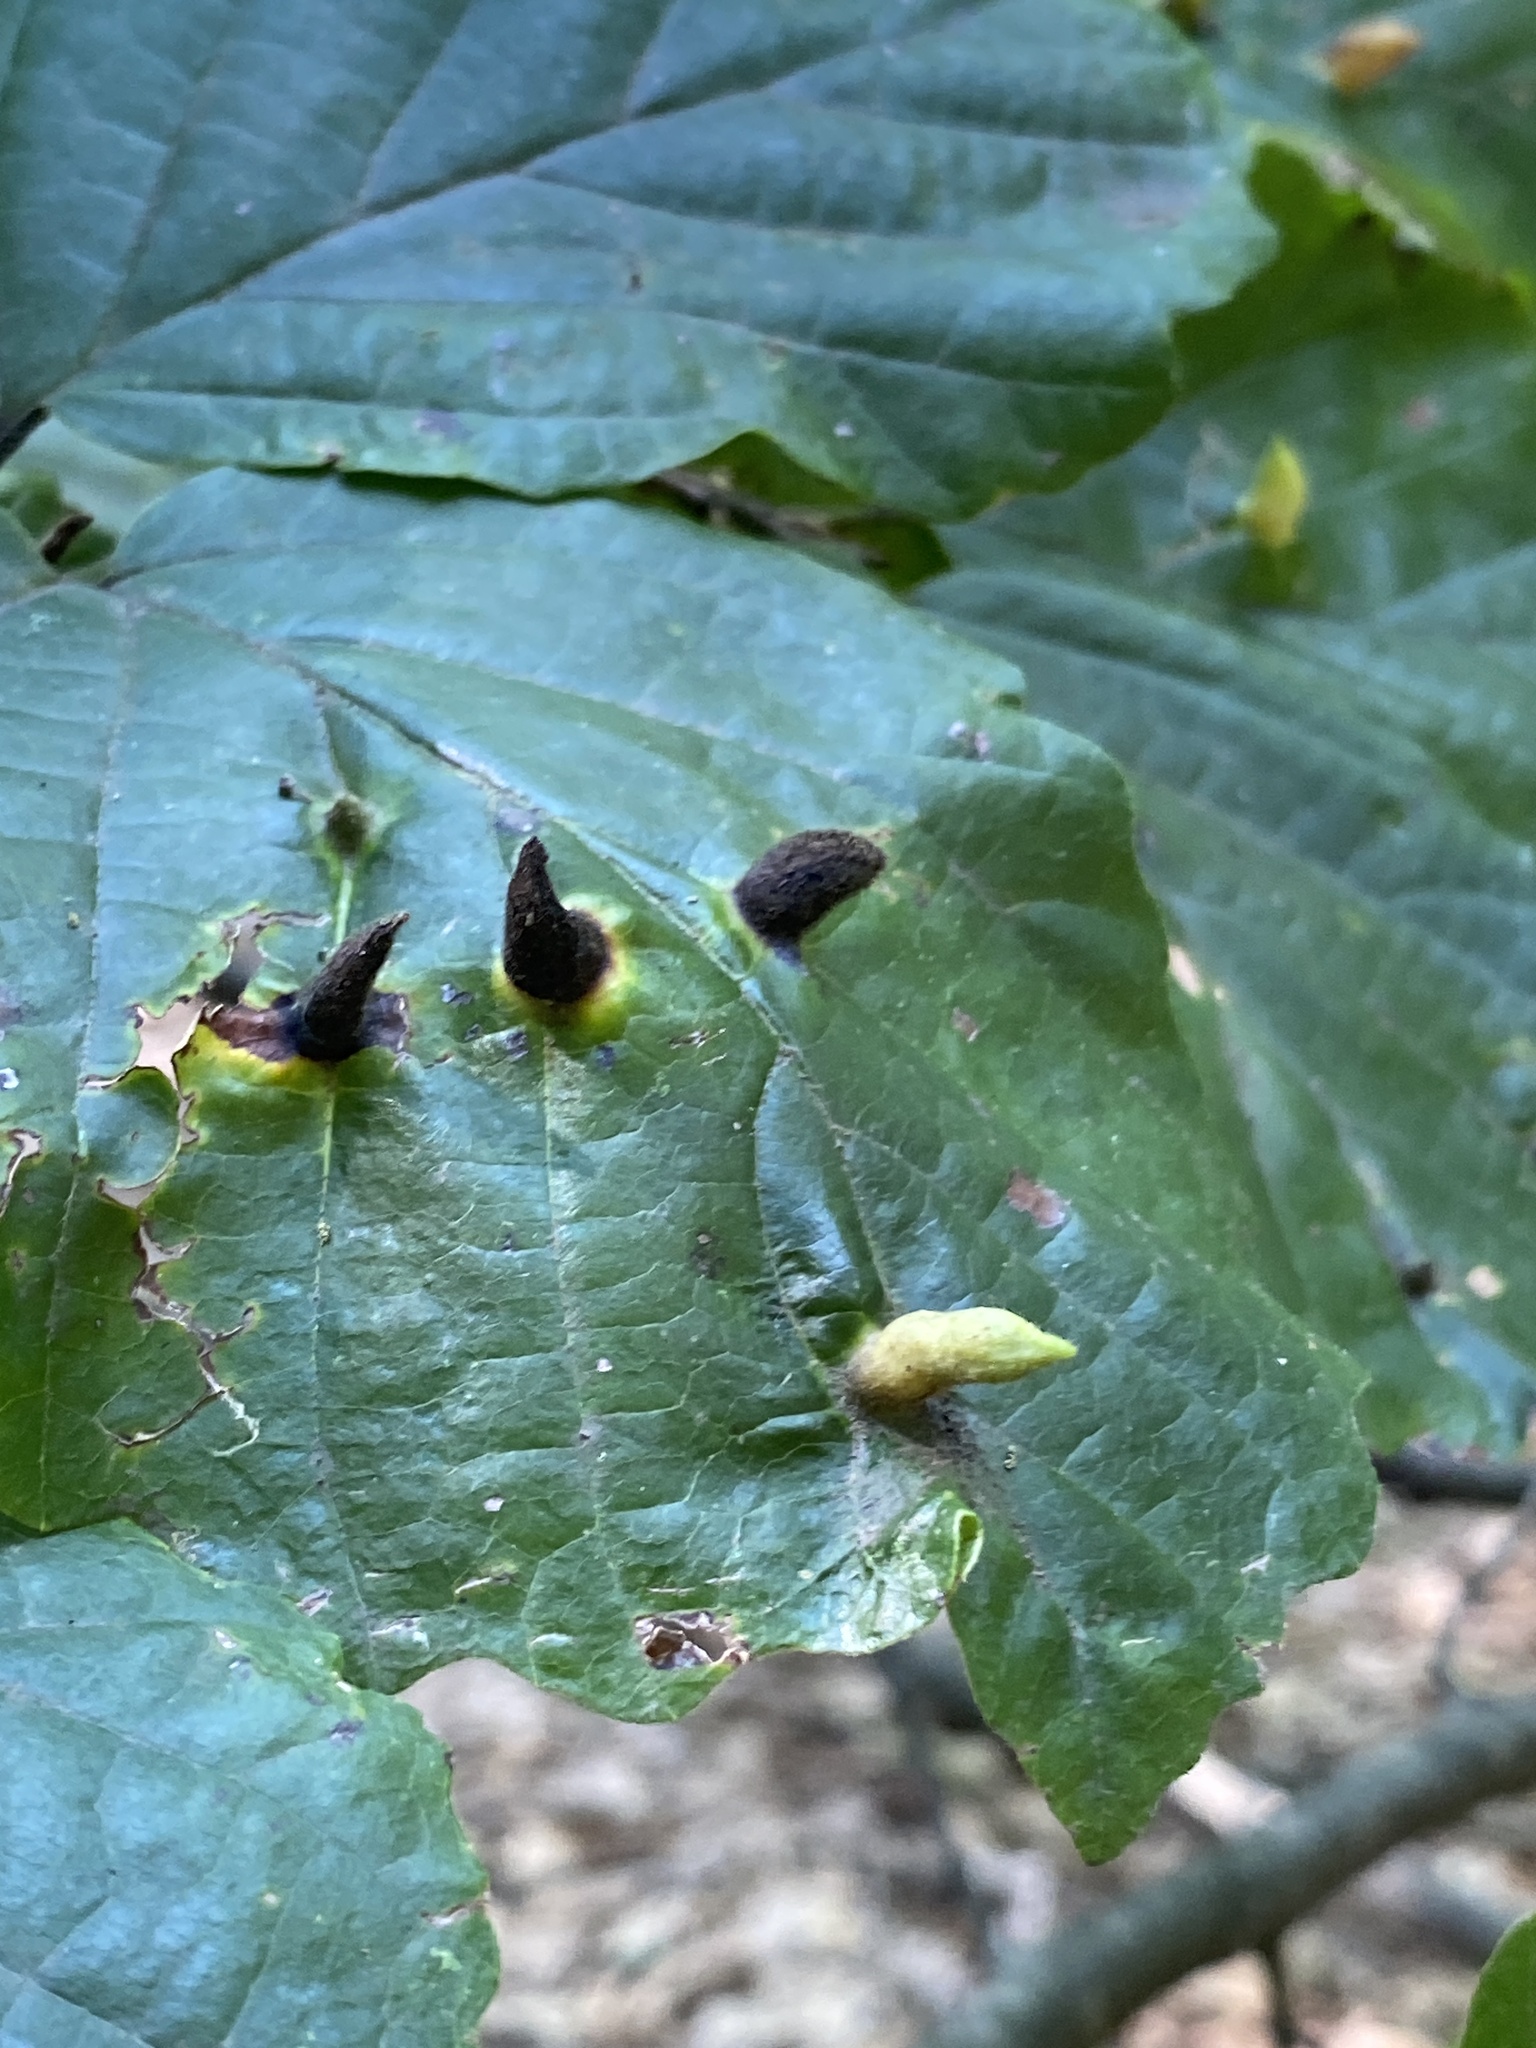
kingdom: Animalia
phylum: Arthropoda
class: Insecta
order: Hemiptera
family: Aphididae
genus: Hormaphis
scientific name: Hormaphis hamamelidis
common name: Witch-hazel cone gall aphid
